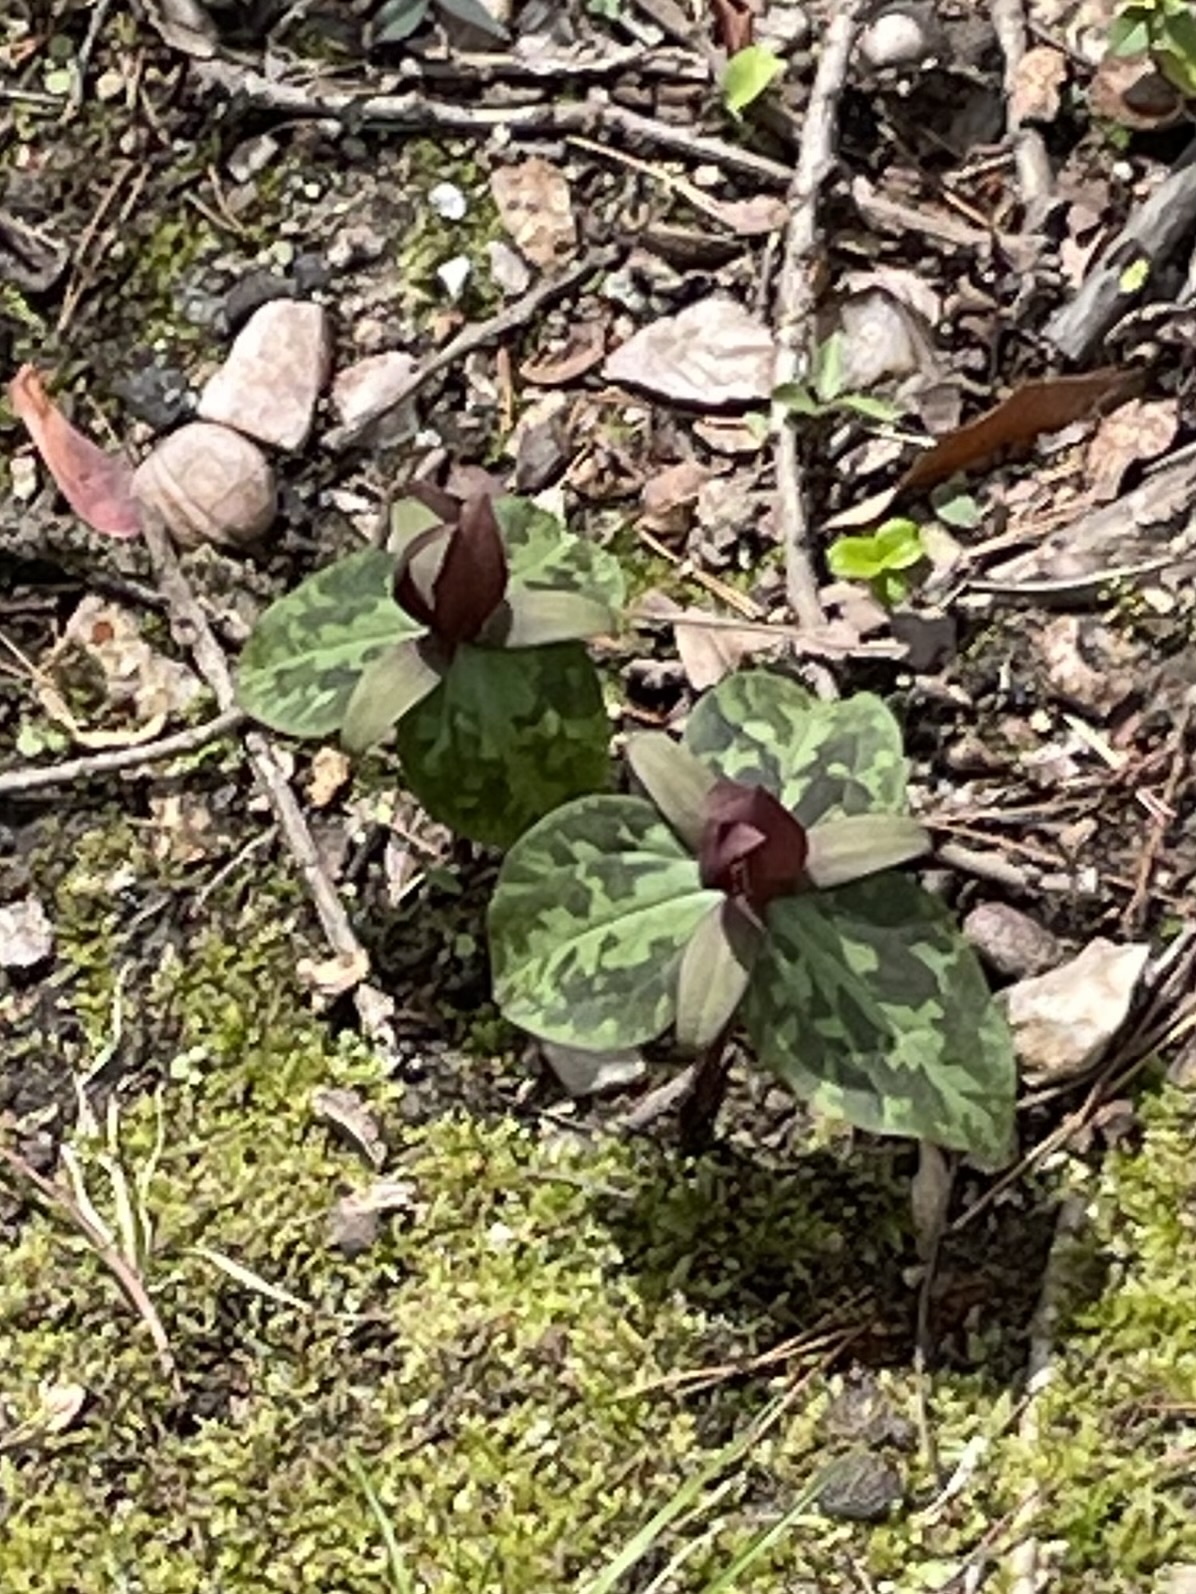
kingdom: Plantae
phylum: Tracheophyta
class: Liliopsida
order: Liliales
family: Melanthiaceae
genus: Trillium
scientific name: Trillium cuneatum
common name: Cuneate trillium
